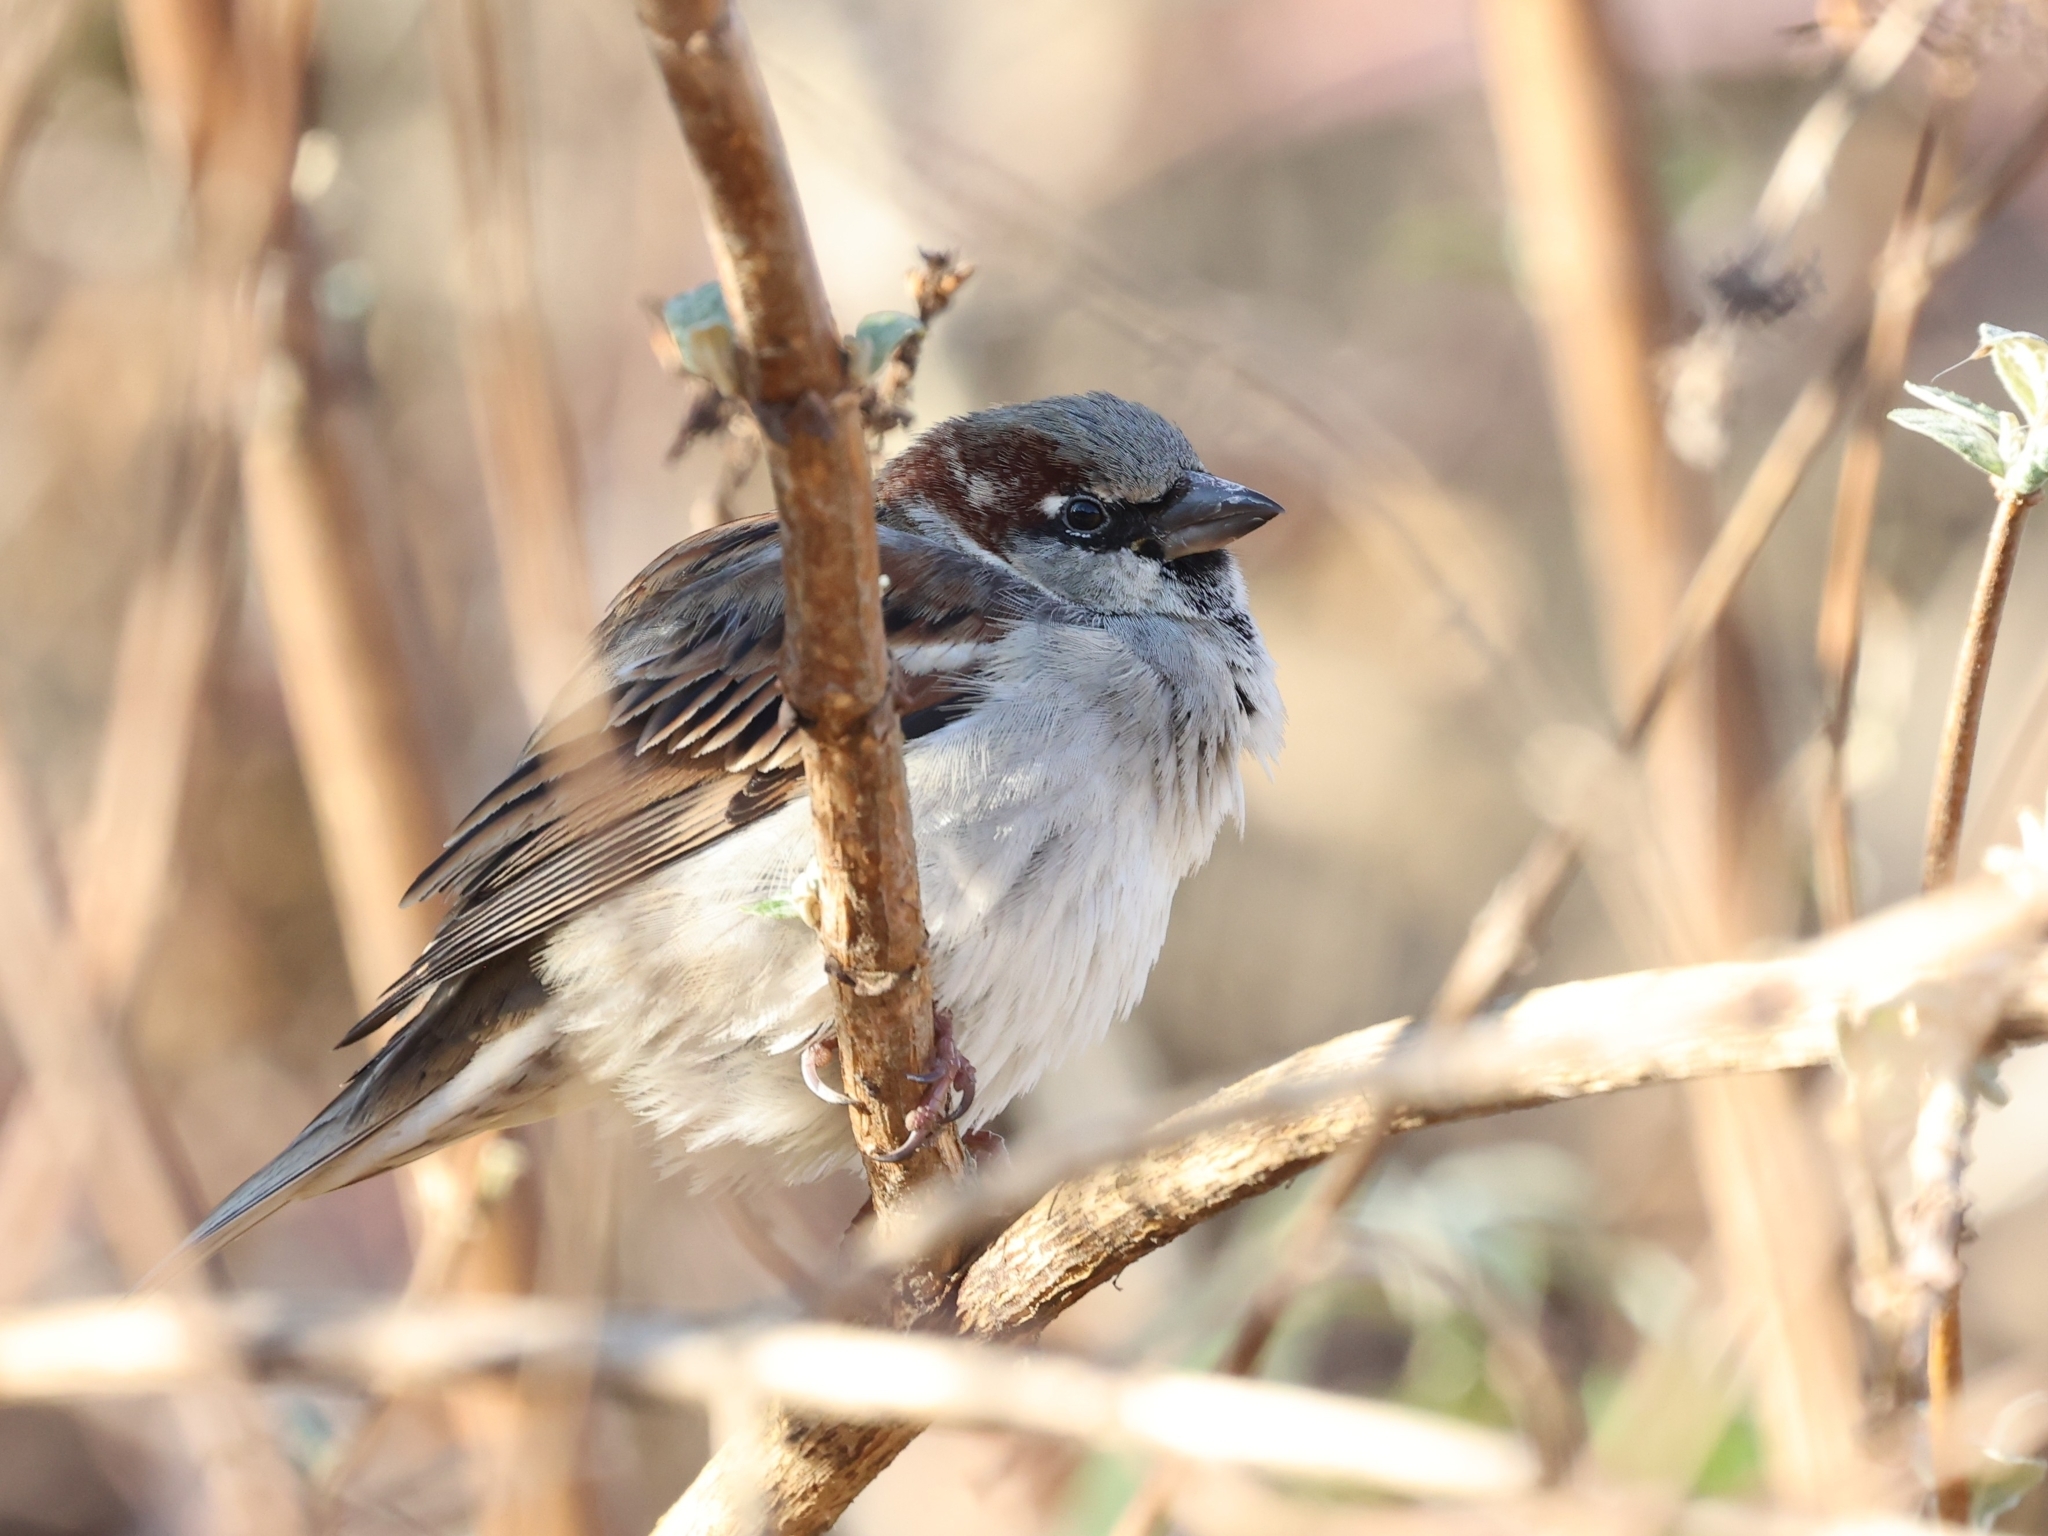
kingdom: Animalia
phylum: Chordata
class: Aves
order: Passeriformes
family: Passeridae
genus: Passer
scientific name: Passer domesticus
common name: House sparrow
